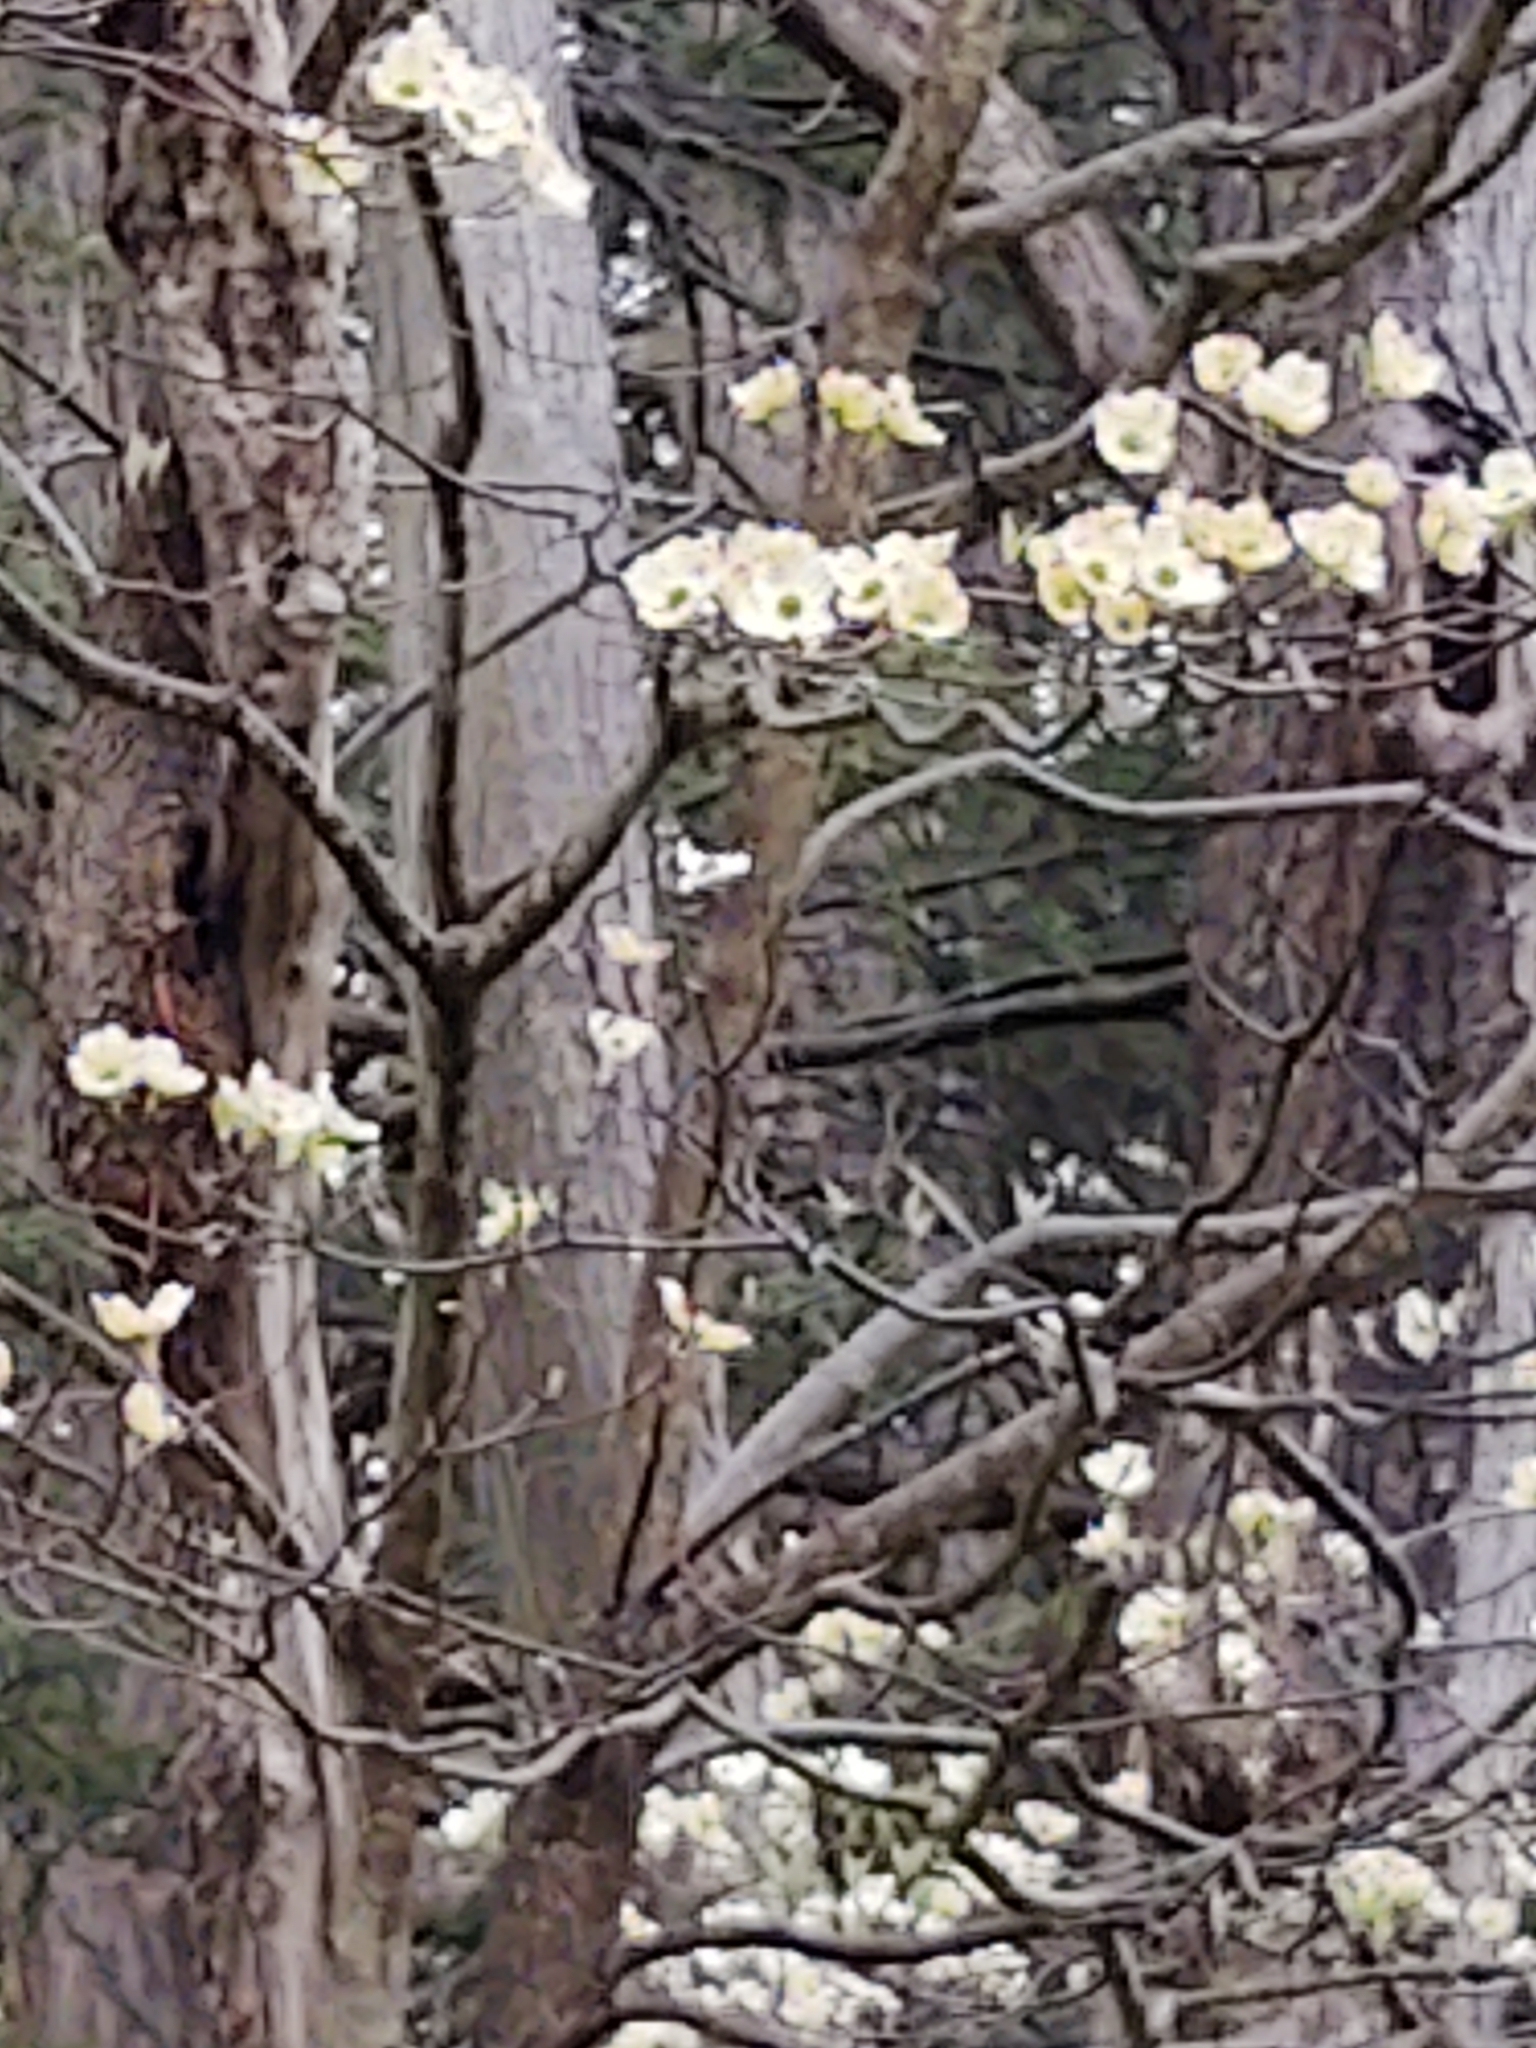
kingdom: Plantae
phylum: Tracheophyta
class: Magnoliopsida
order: Cornales
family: Cornaceae
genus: Cornus
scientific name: Cornus florida
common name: Flowering dogwood
